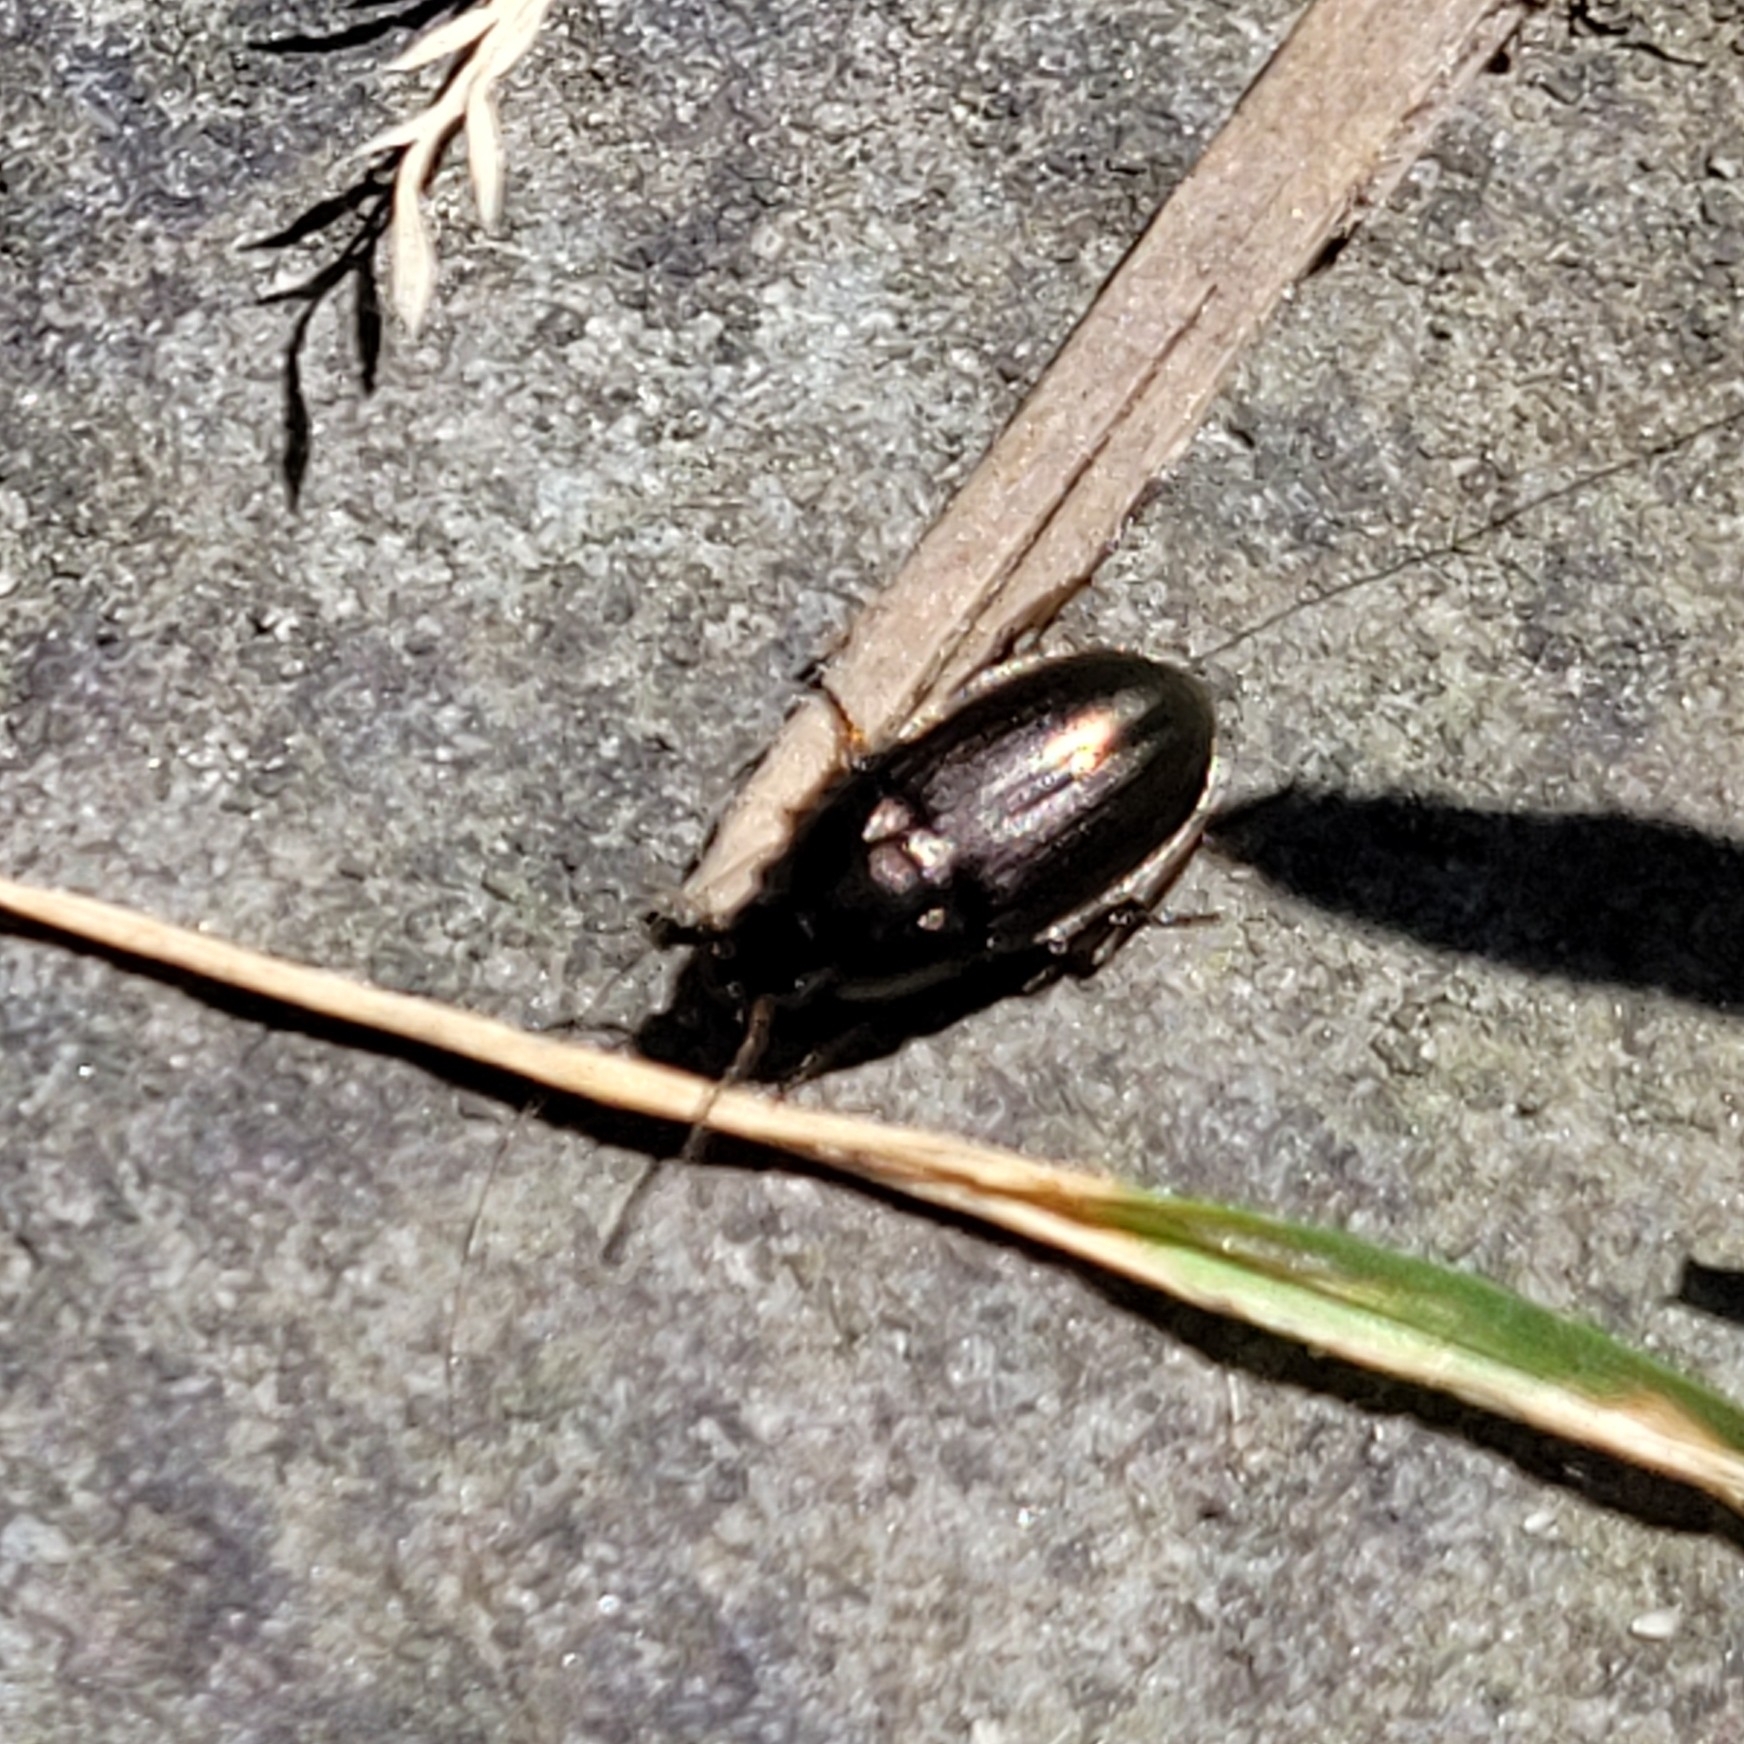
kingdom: Animalia
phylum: Arthropoda
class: Insecta
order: Coleoptera
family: Carabidae
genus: Amara
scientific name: Amara
